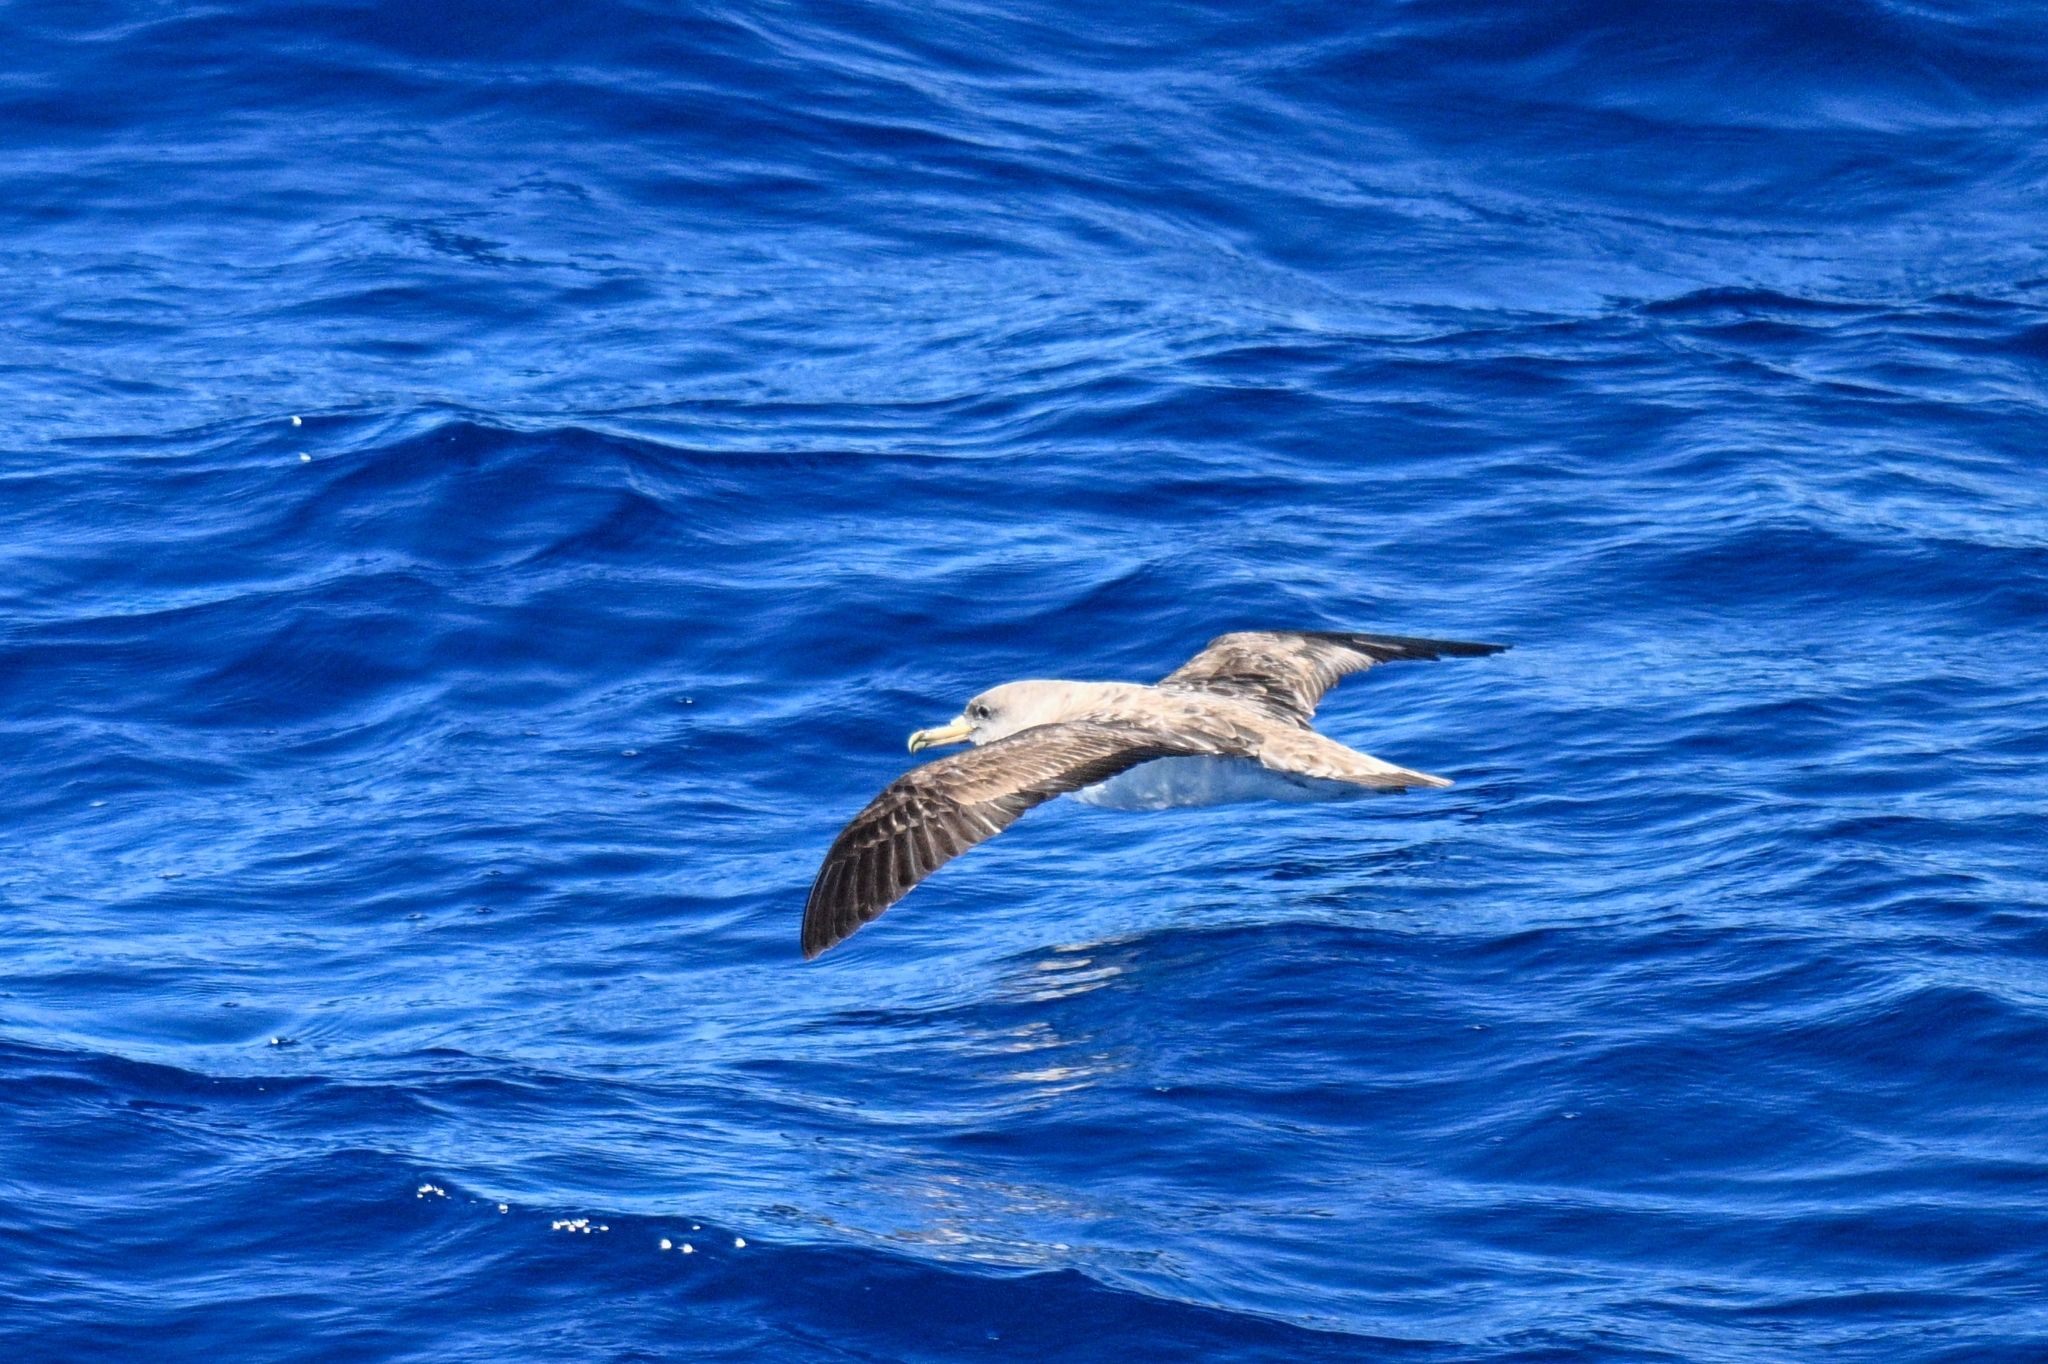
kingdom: Animalia
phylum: Chordata
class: Aves
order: Procellariiformes
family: Procellariidae
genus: Calonectris
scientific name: Calonectris diomedea
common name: Cory's shearwater
